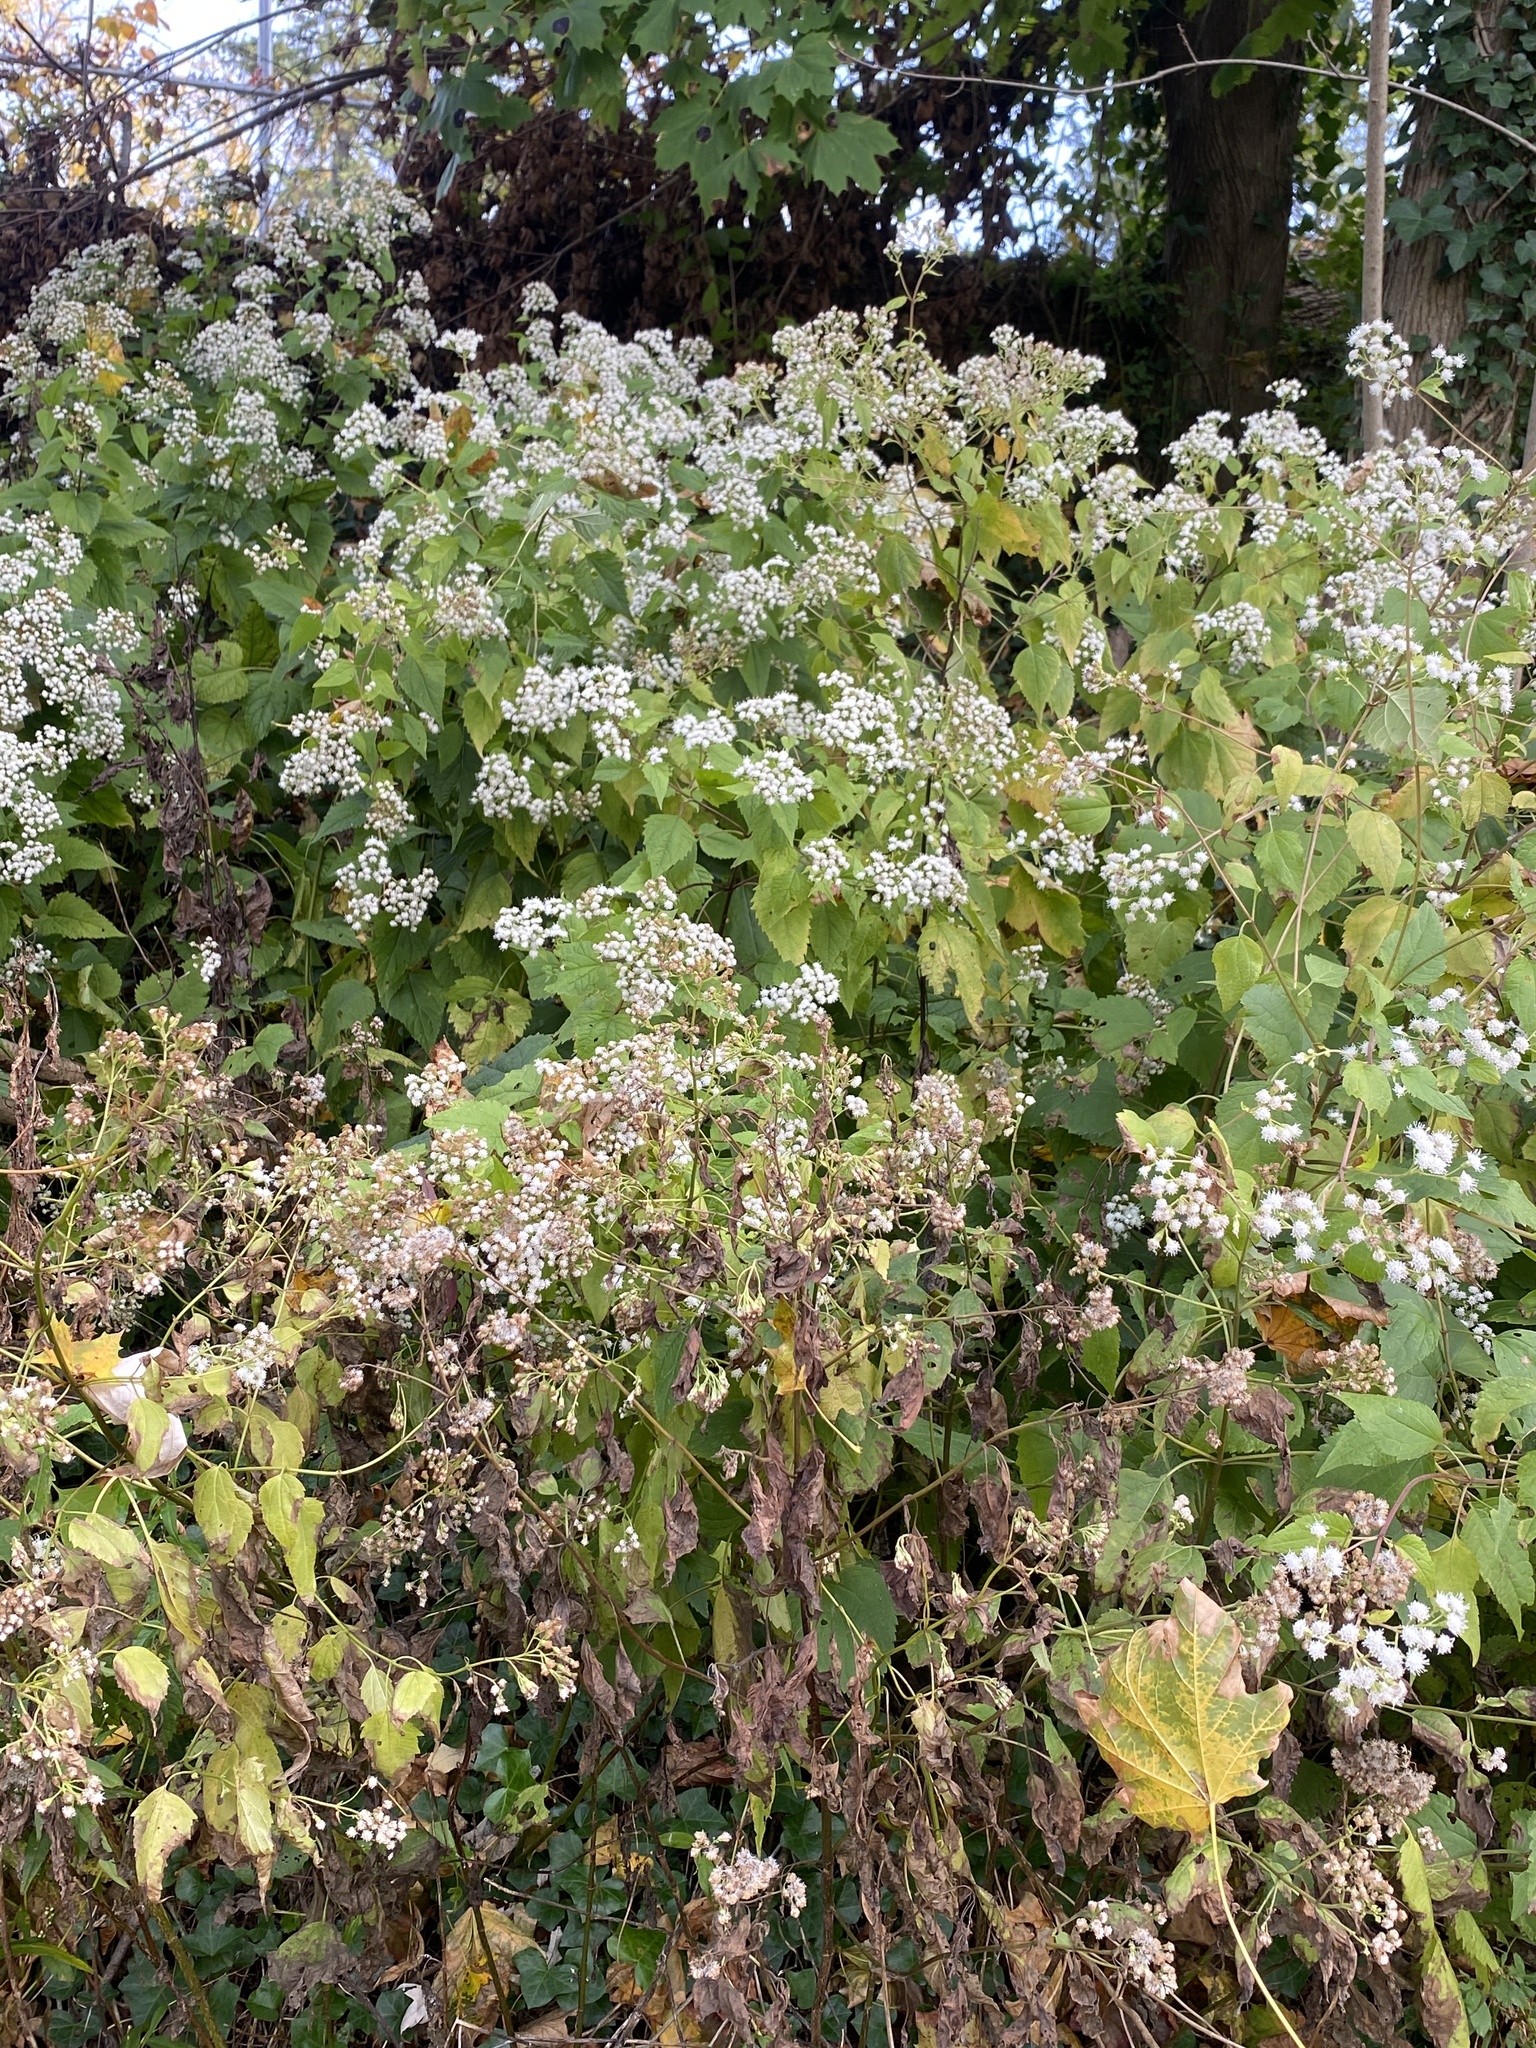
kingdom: Plantae
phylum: Tracheophyta
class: Magnoliopsida
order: Asterales
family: Asteraceae
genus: Ageratina
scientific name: Ageratina altissima
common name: White snakeroot
